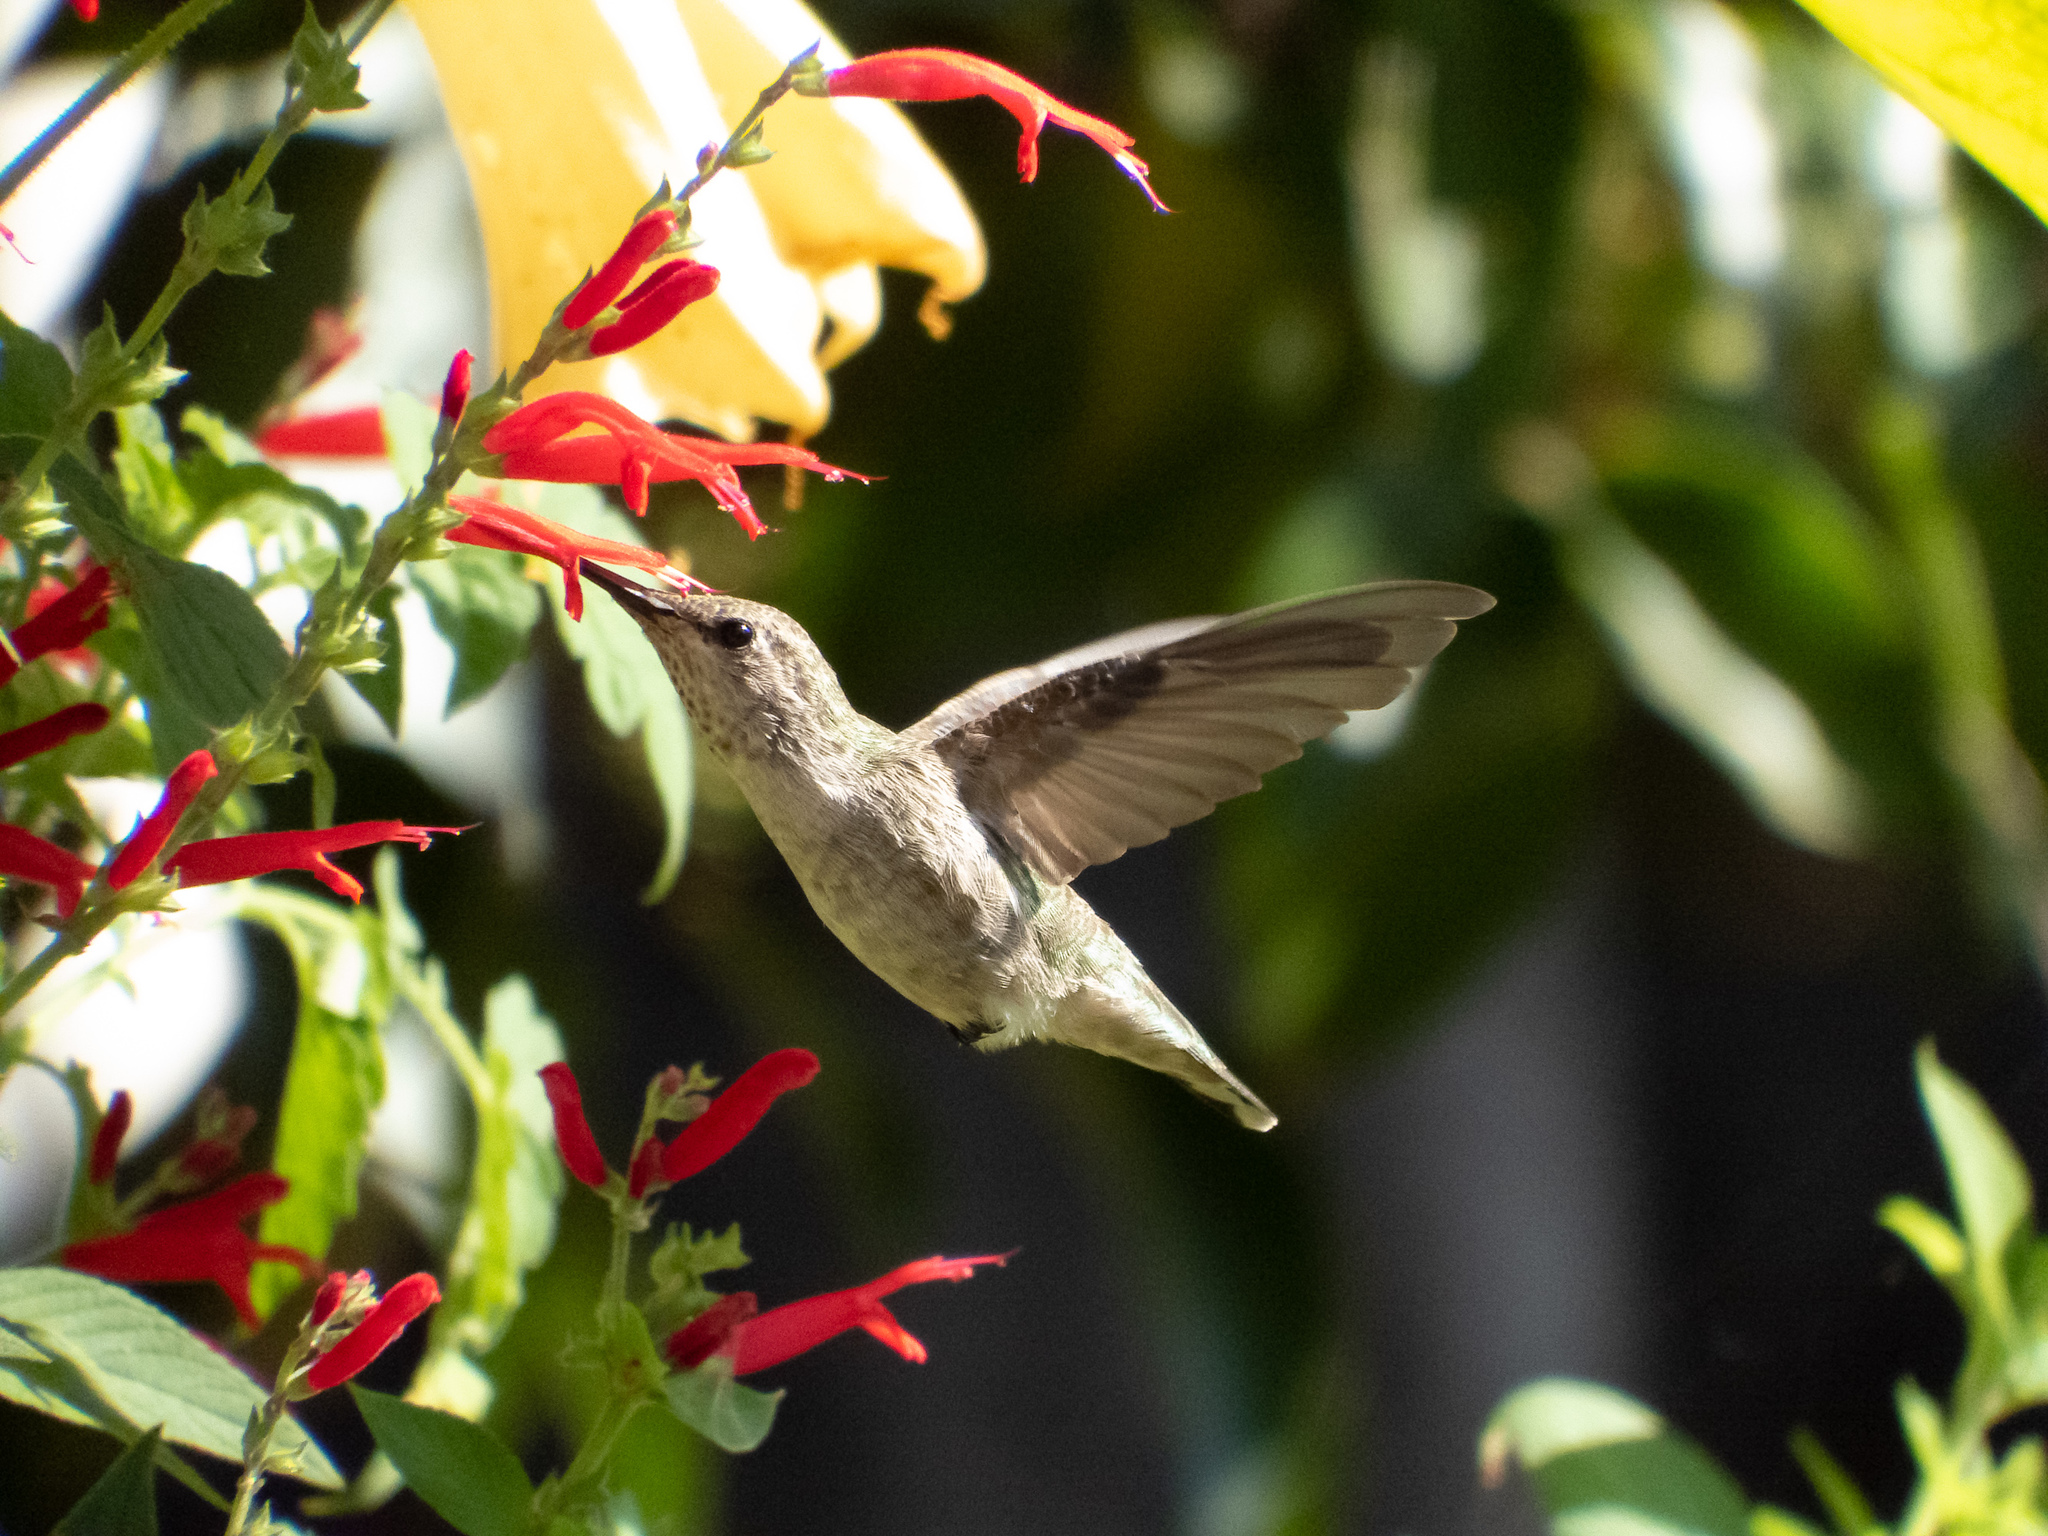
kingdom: Animalia
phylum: Chordata
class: Aves
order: Apodiformes
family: Trochilidae
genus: Calypte
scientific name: Calypte anna
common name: Anna's hummingbird
